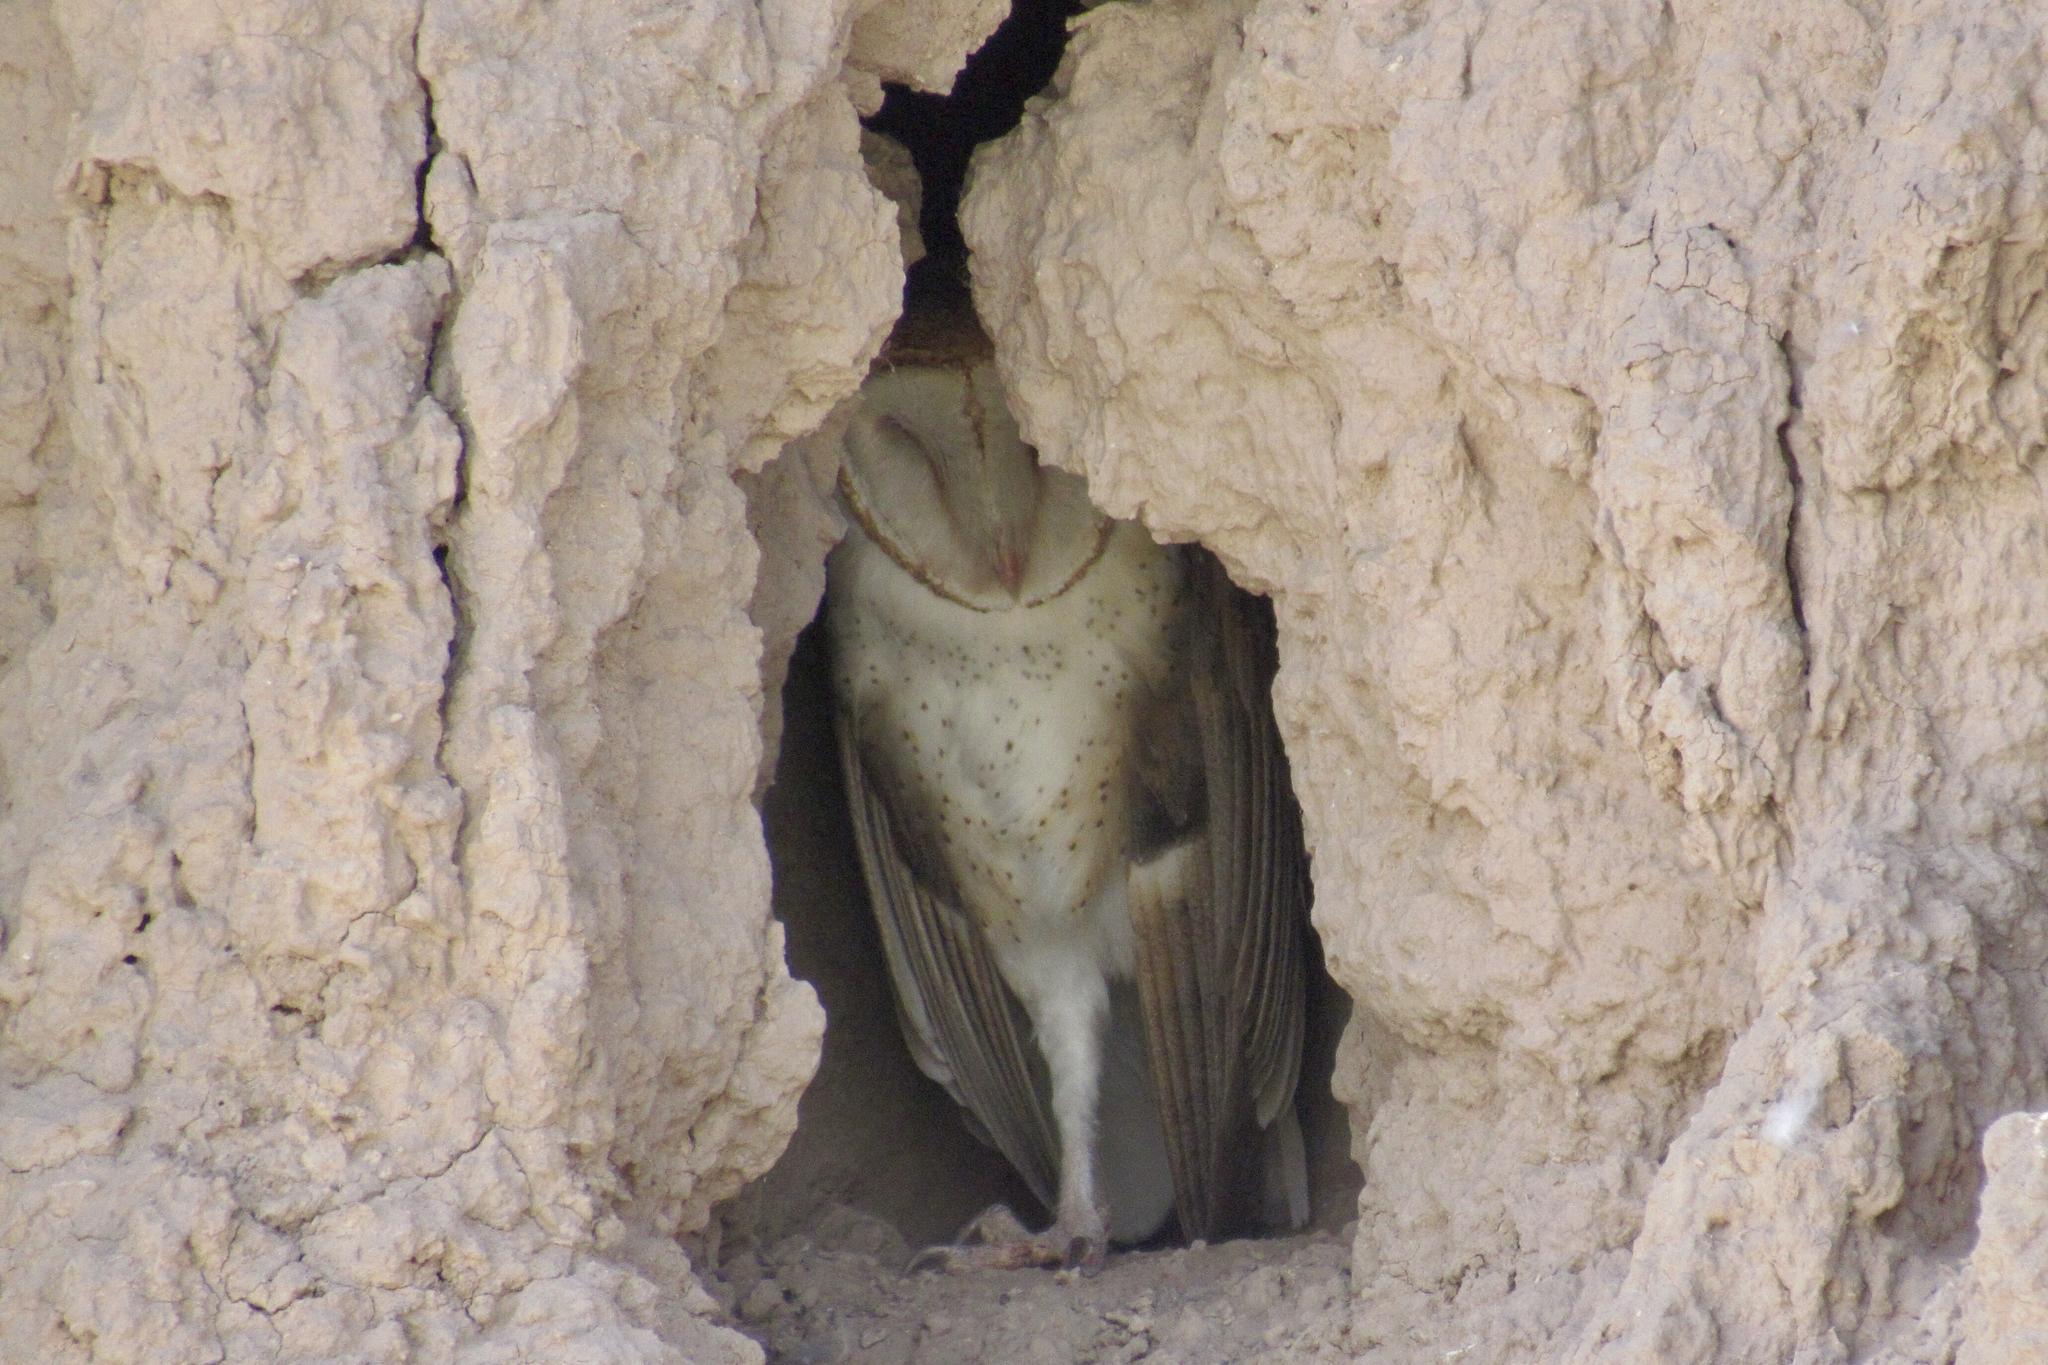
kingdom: Animalia
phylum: Chordata
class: Aves
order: Strigiformes
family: Tytonidae
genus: Tyto
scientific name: Tyto furcata
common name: American barn owl
